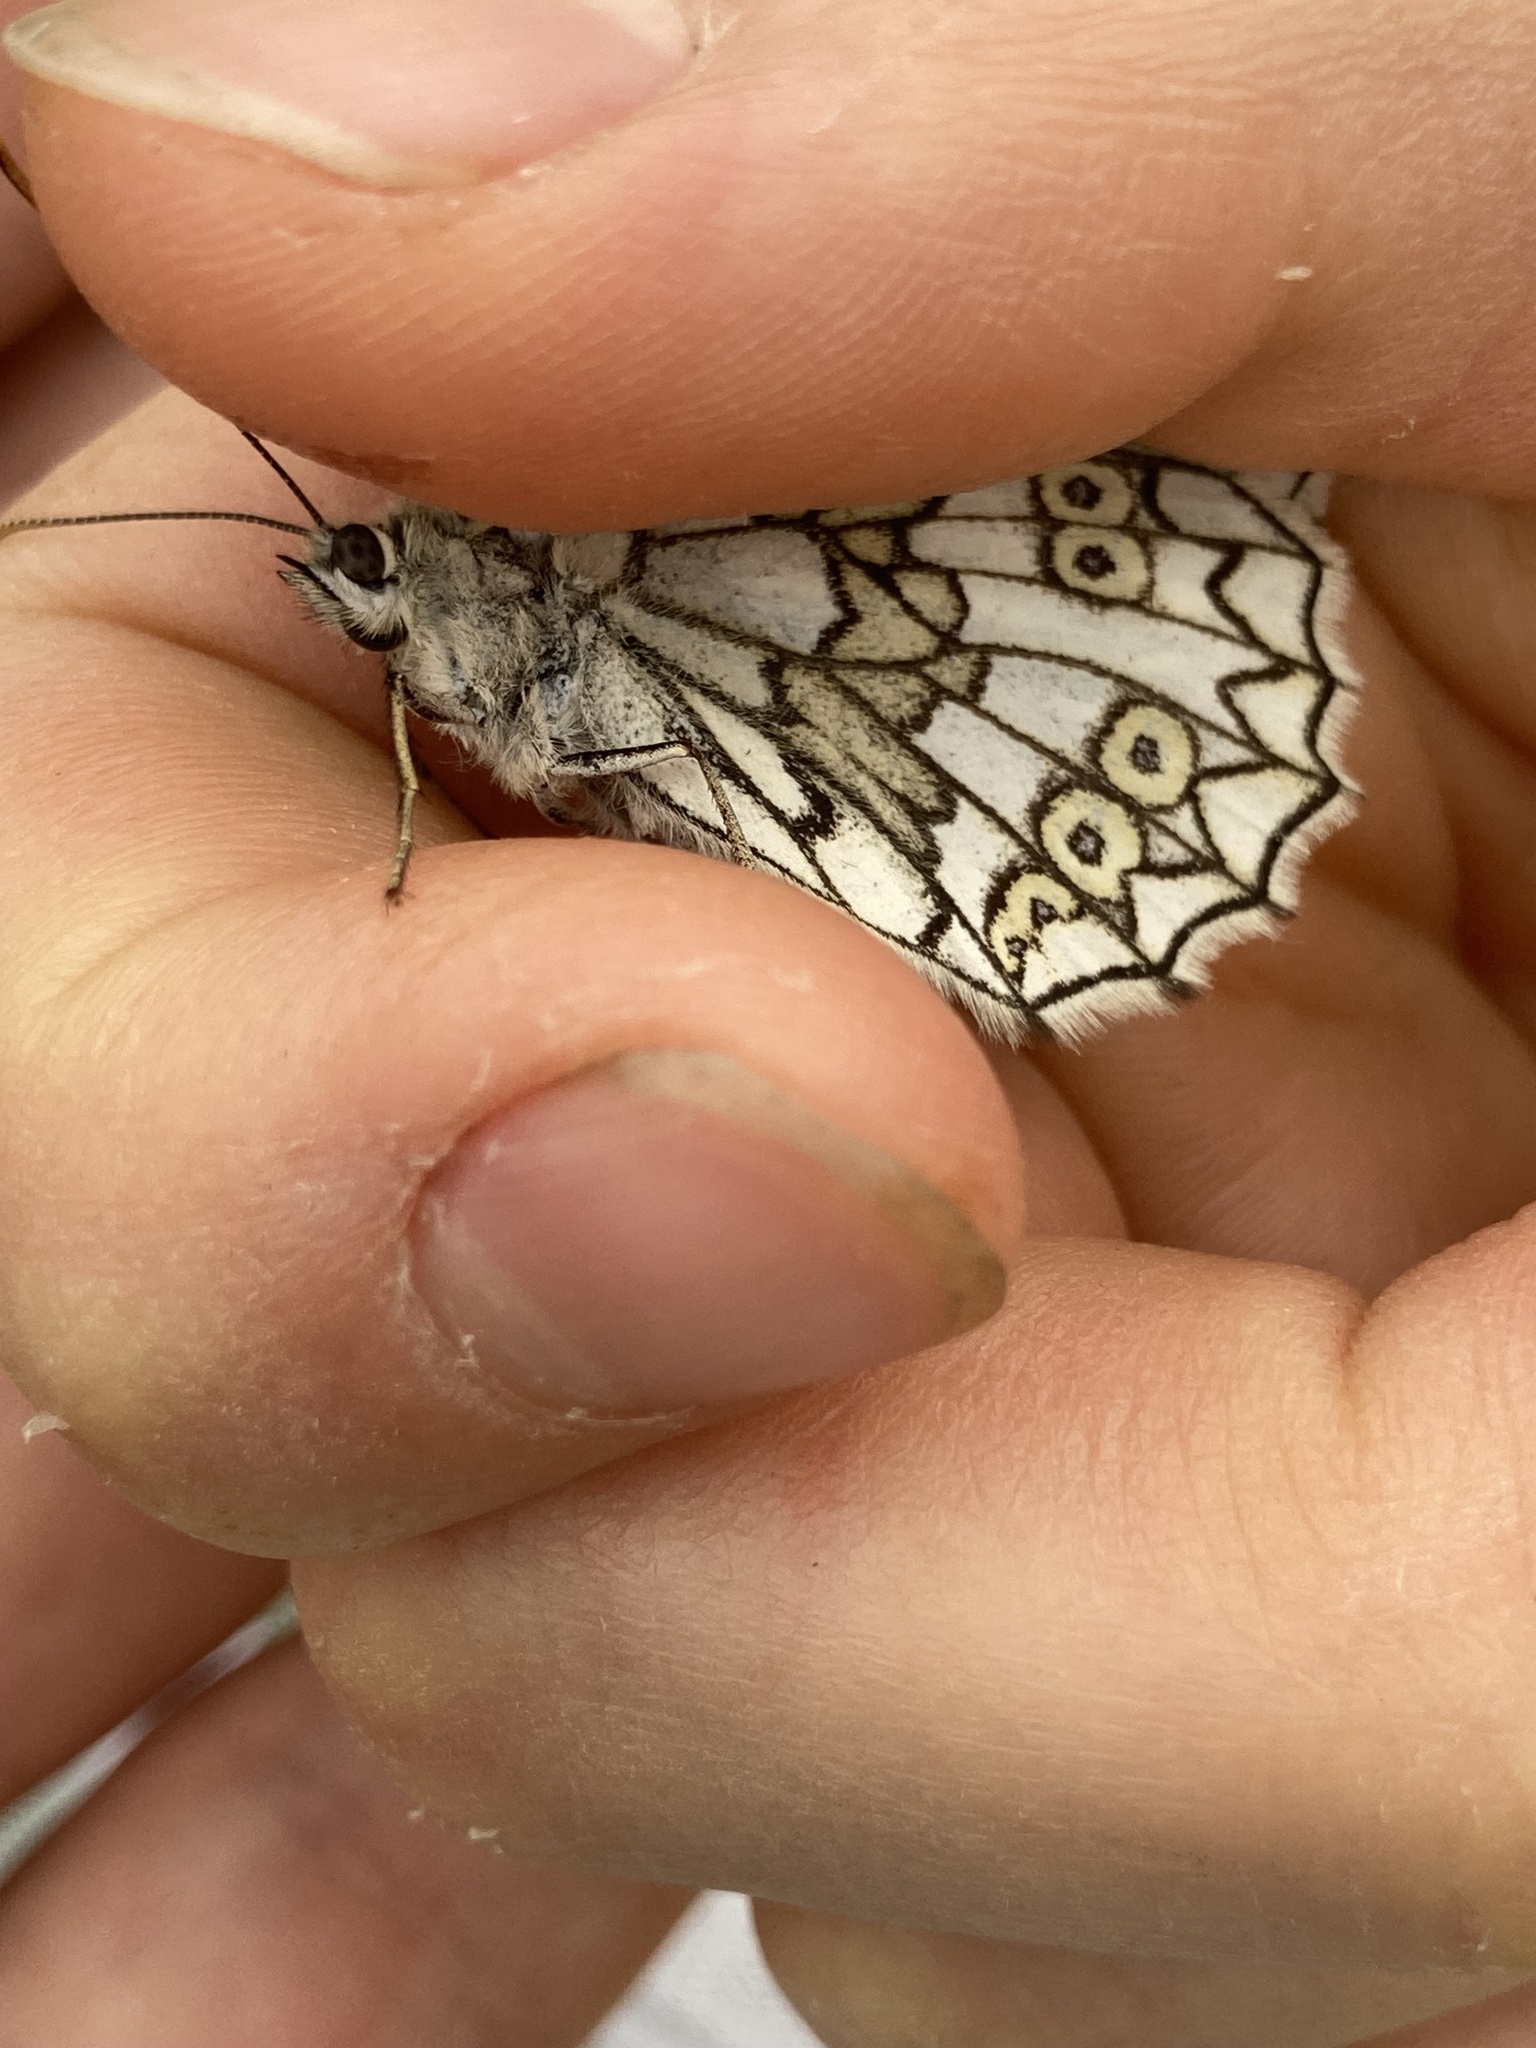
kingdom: Animalia
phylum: Arthropoda
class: Insecta
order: Lepidoptera
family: Nymphalidae
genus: Melanargia
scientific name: Melanargia japygia
